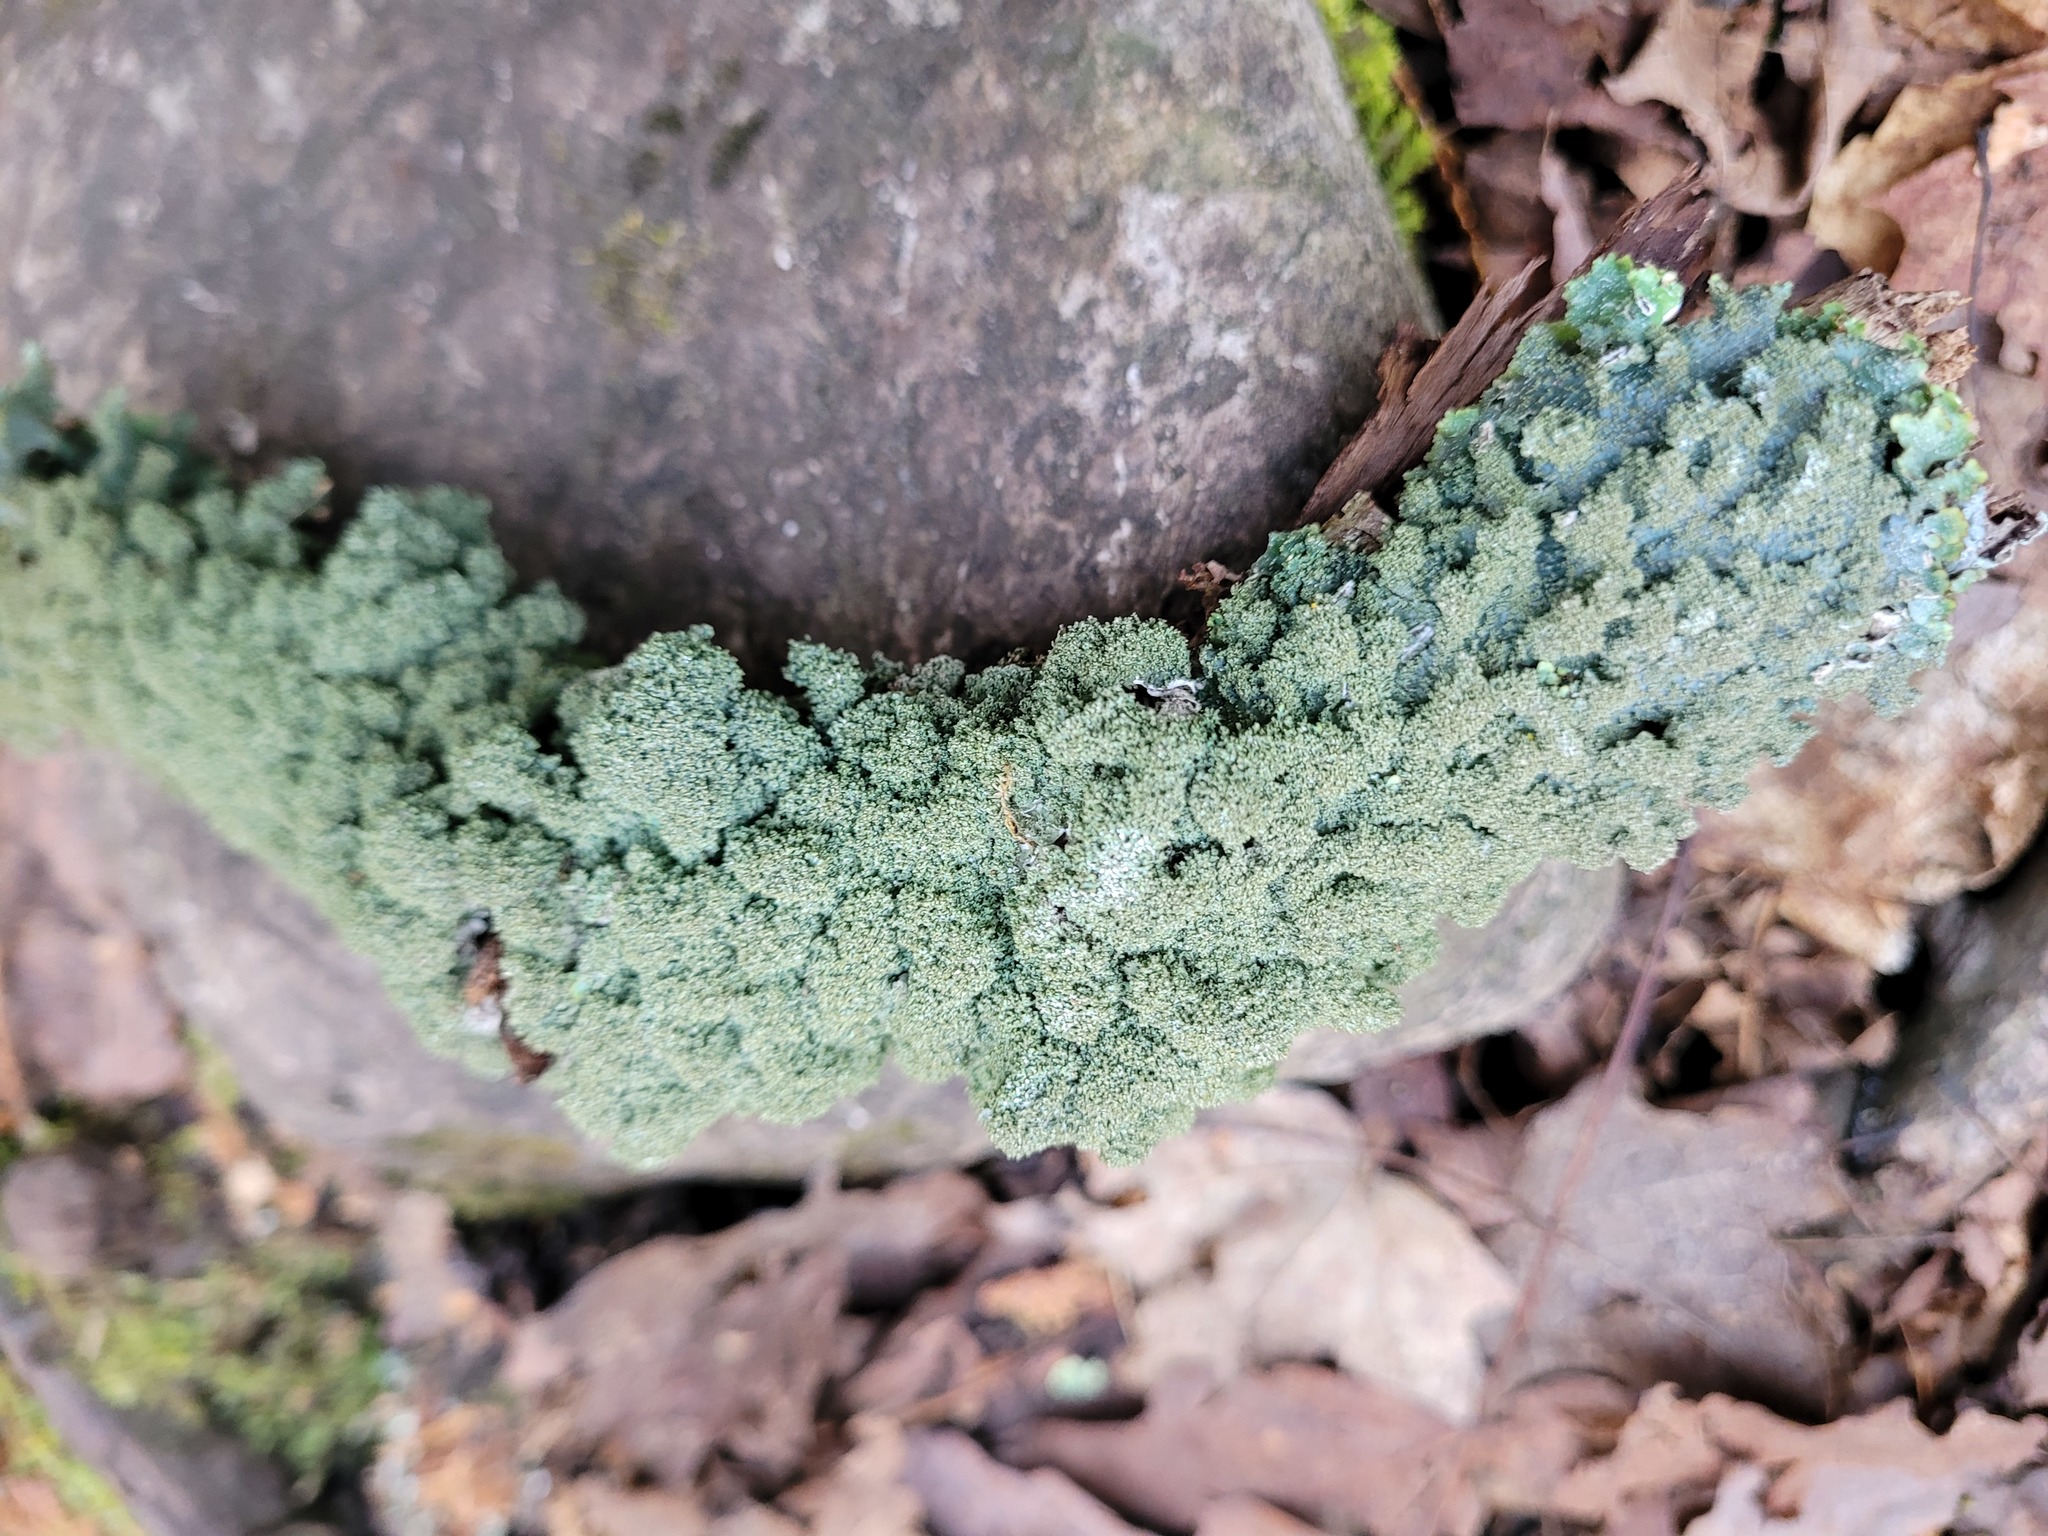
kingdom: Fungi
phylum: Ascomycota
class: Lecanoromycetes
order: Lecanorales
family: Parmeliaceae
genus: Punctelia
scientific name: Punctelia rudecta
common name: Rough speckled shield lichen
